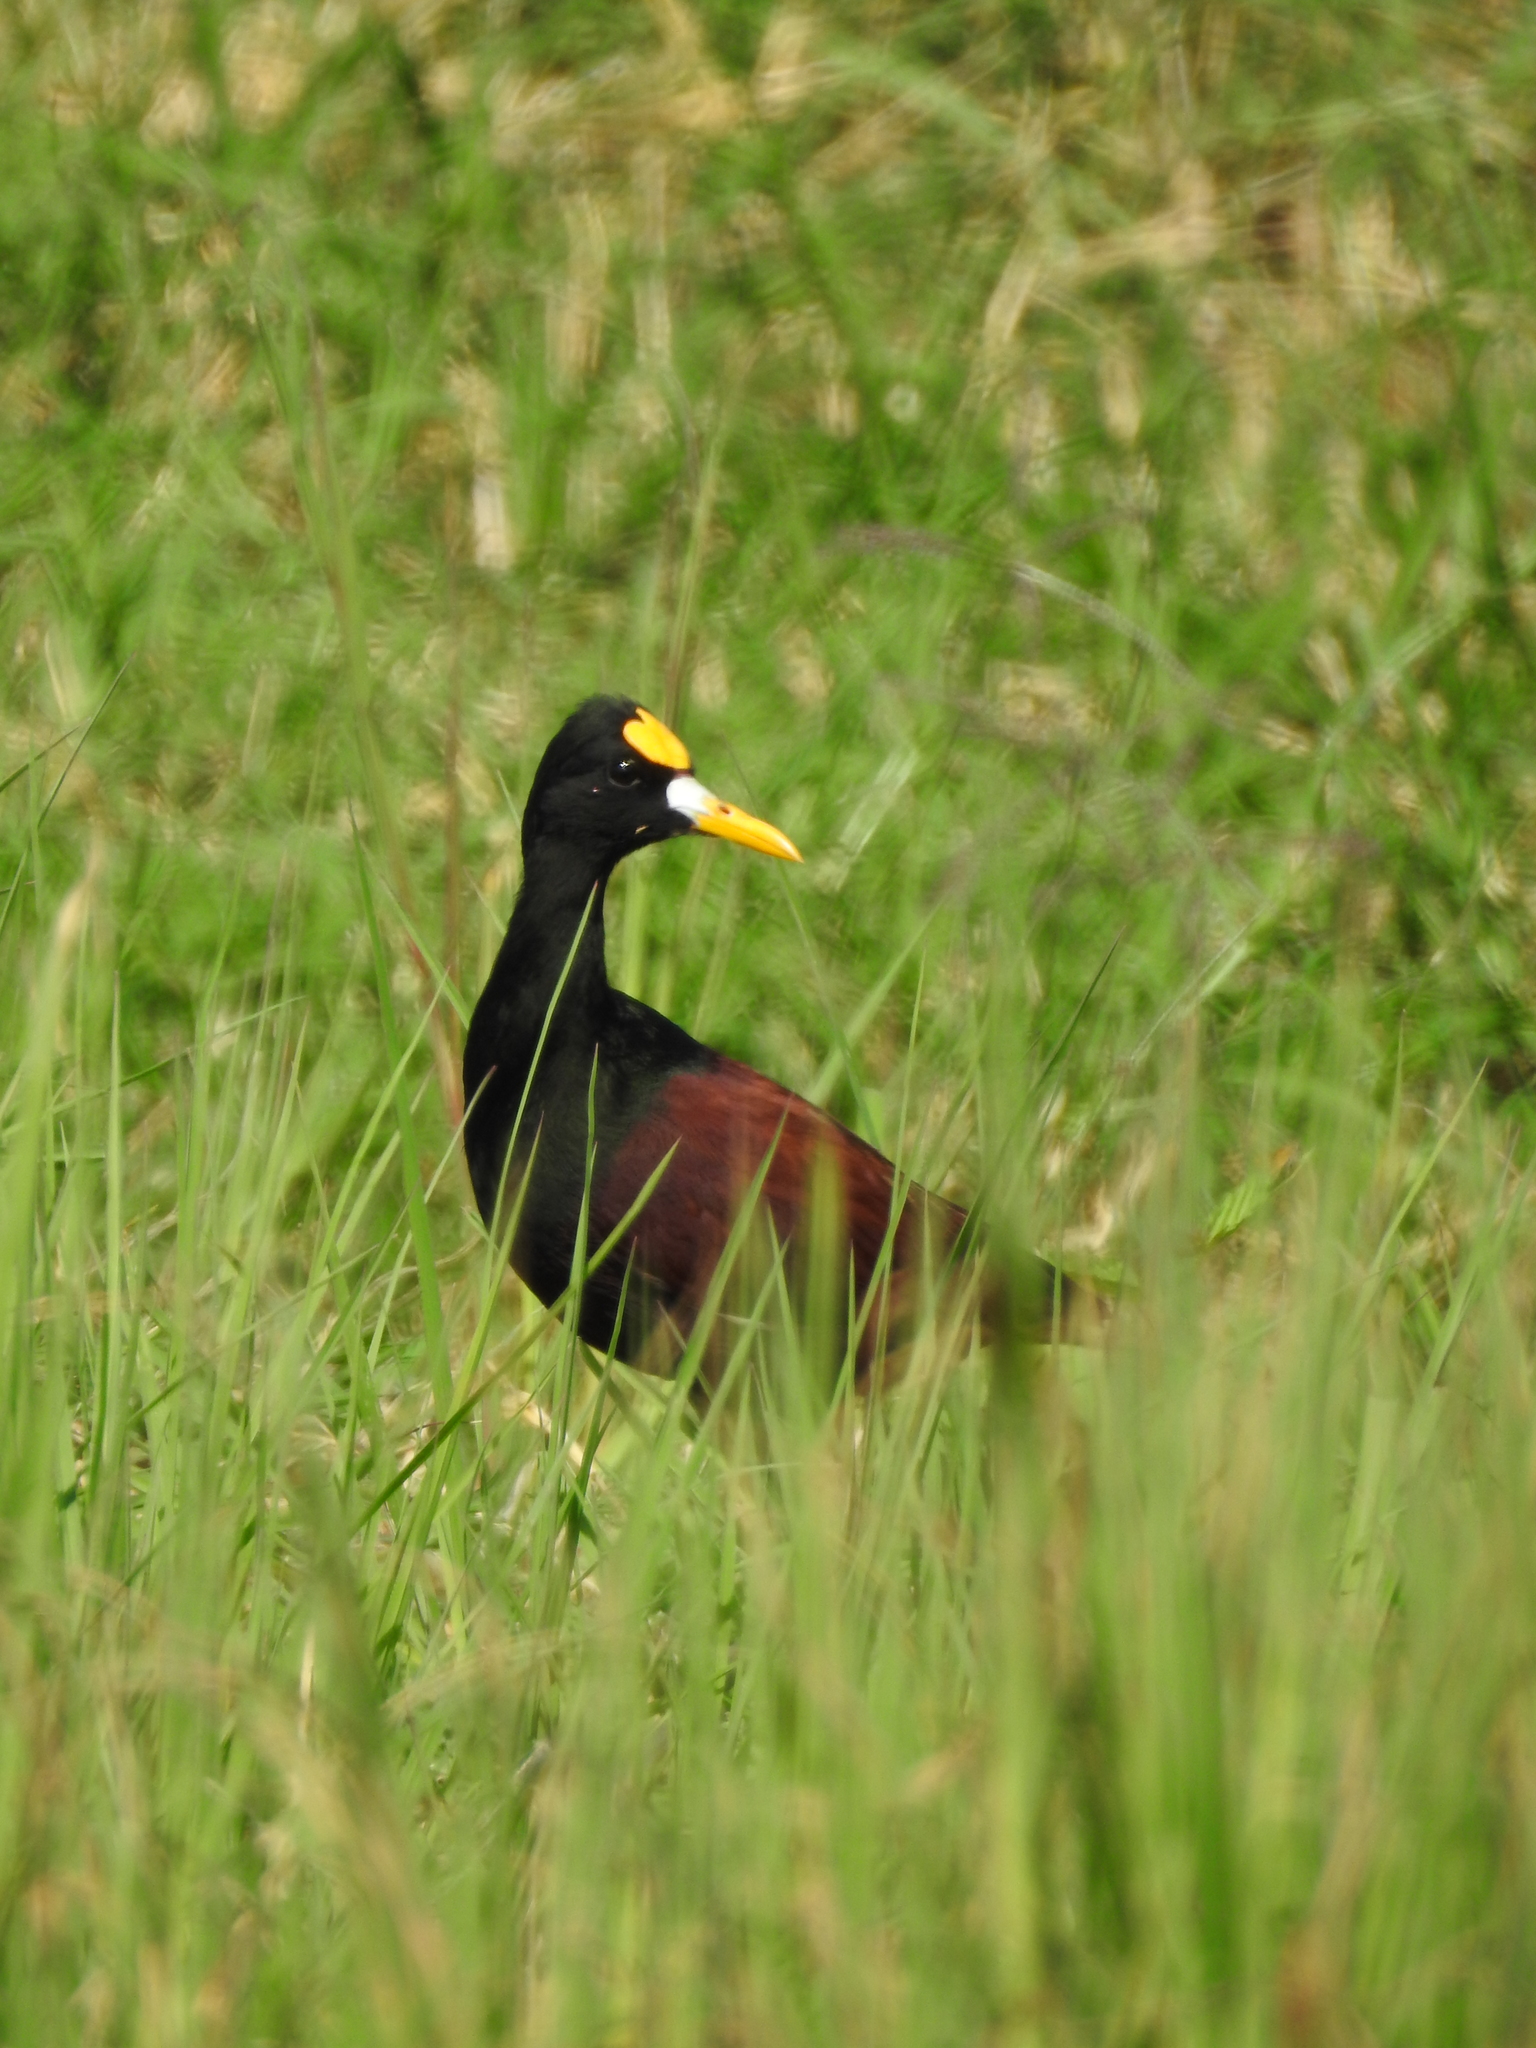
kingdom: Animalia
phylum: Chordata
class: Aves
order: Charadriiformes
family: Jacanidae
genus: Jacana
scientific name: Jacana spinosa
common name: Northern jacana
